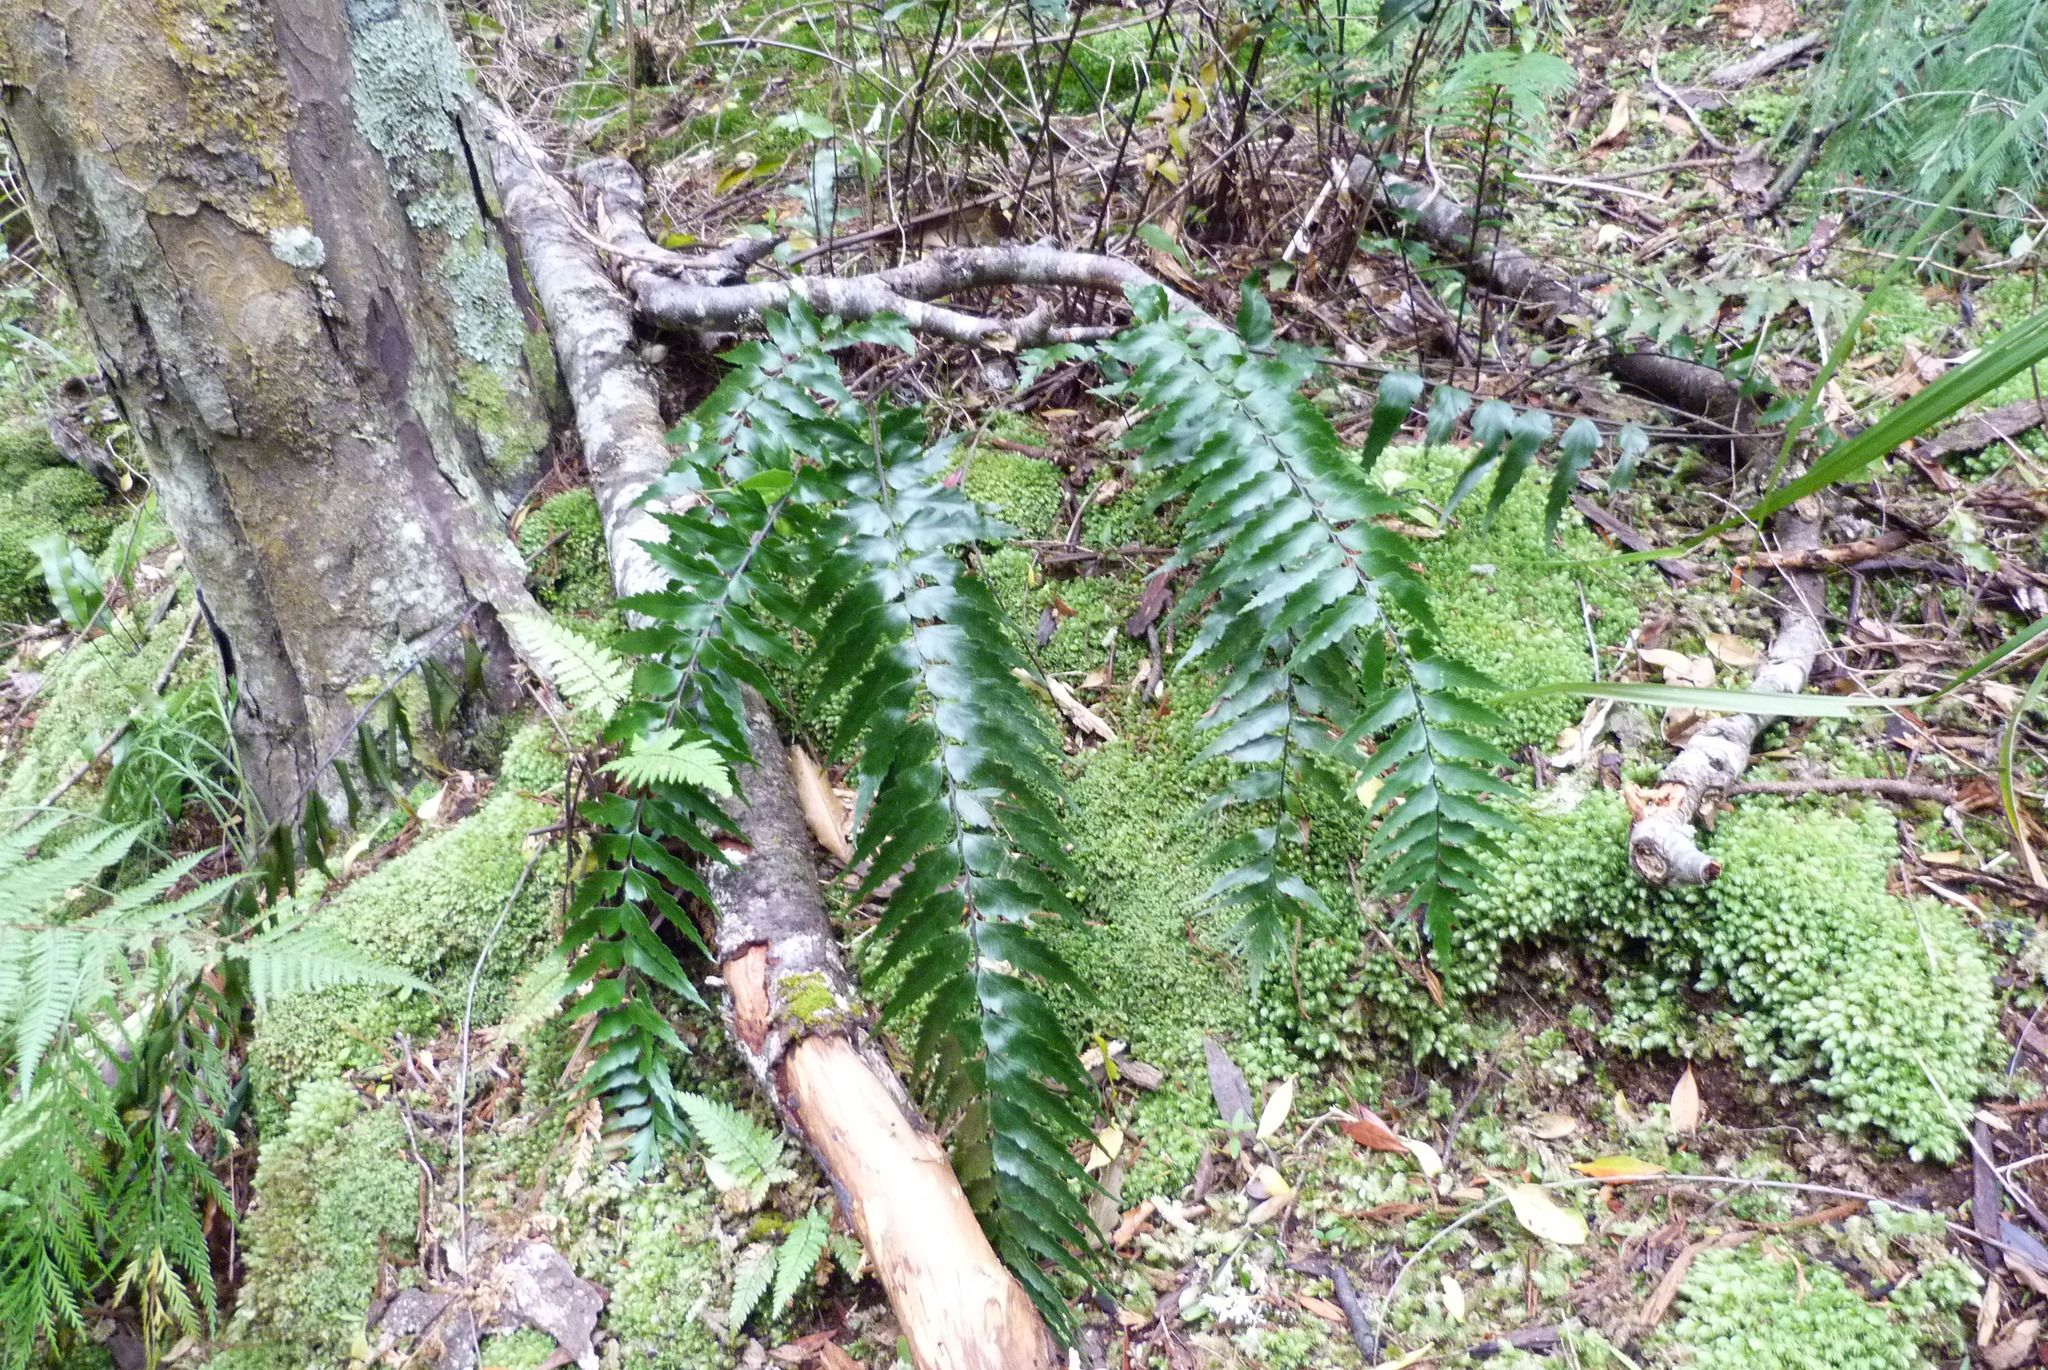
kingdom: Plantae
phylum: Tracheophyta
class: Polypodiopsida
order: Polypodiales
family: Aspleniaceae
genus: Asplenium
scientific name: Asplenium polyodon
